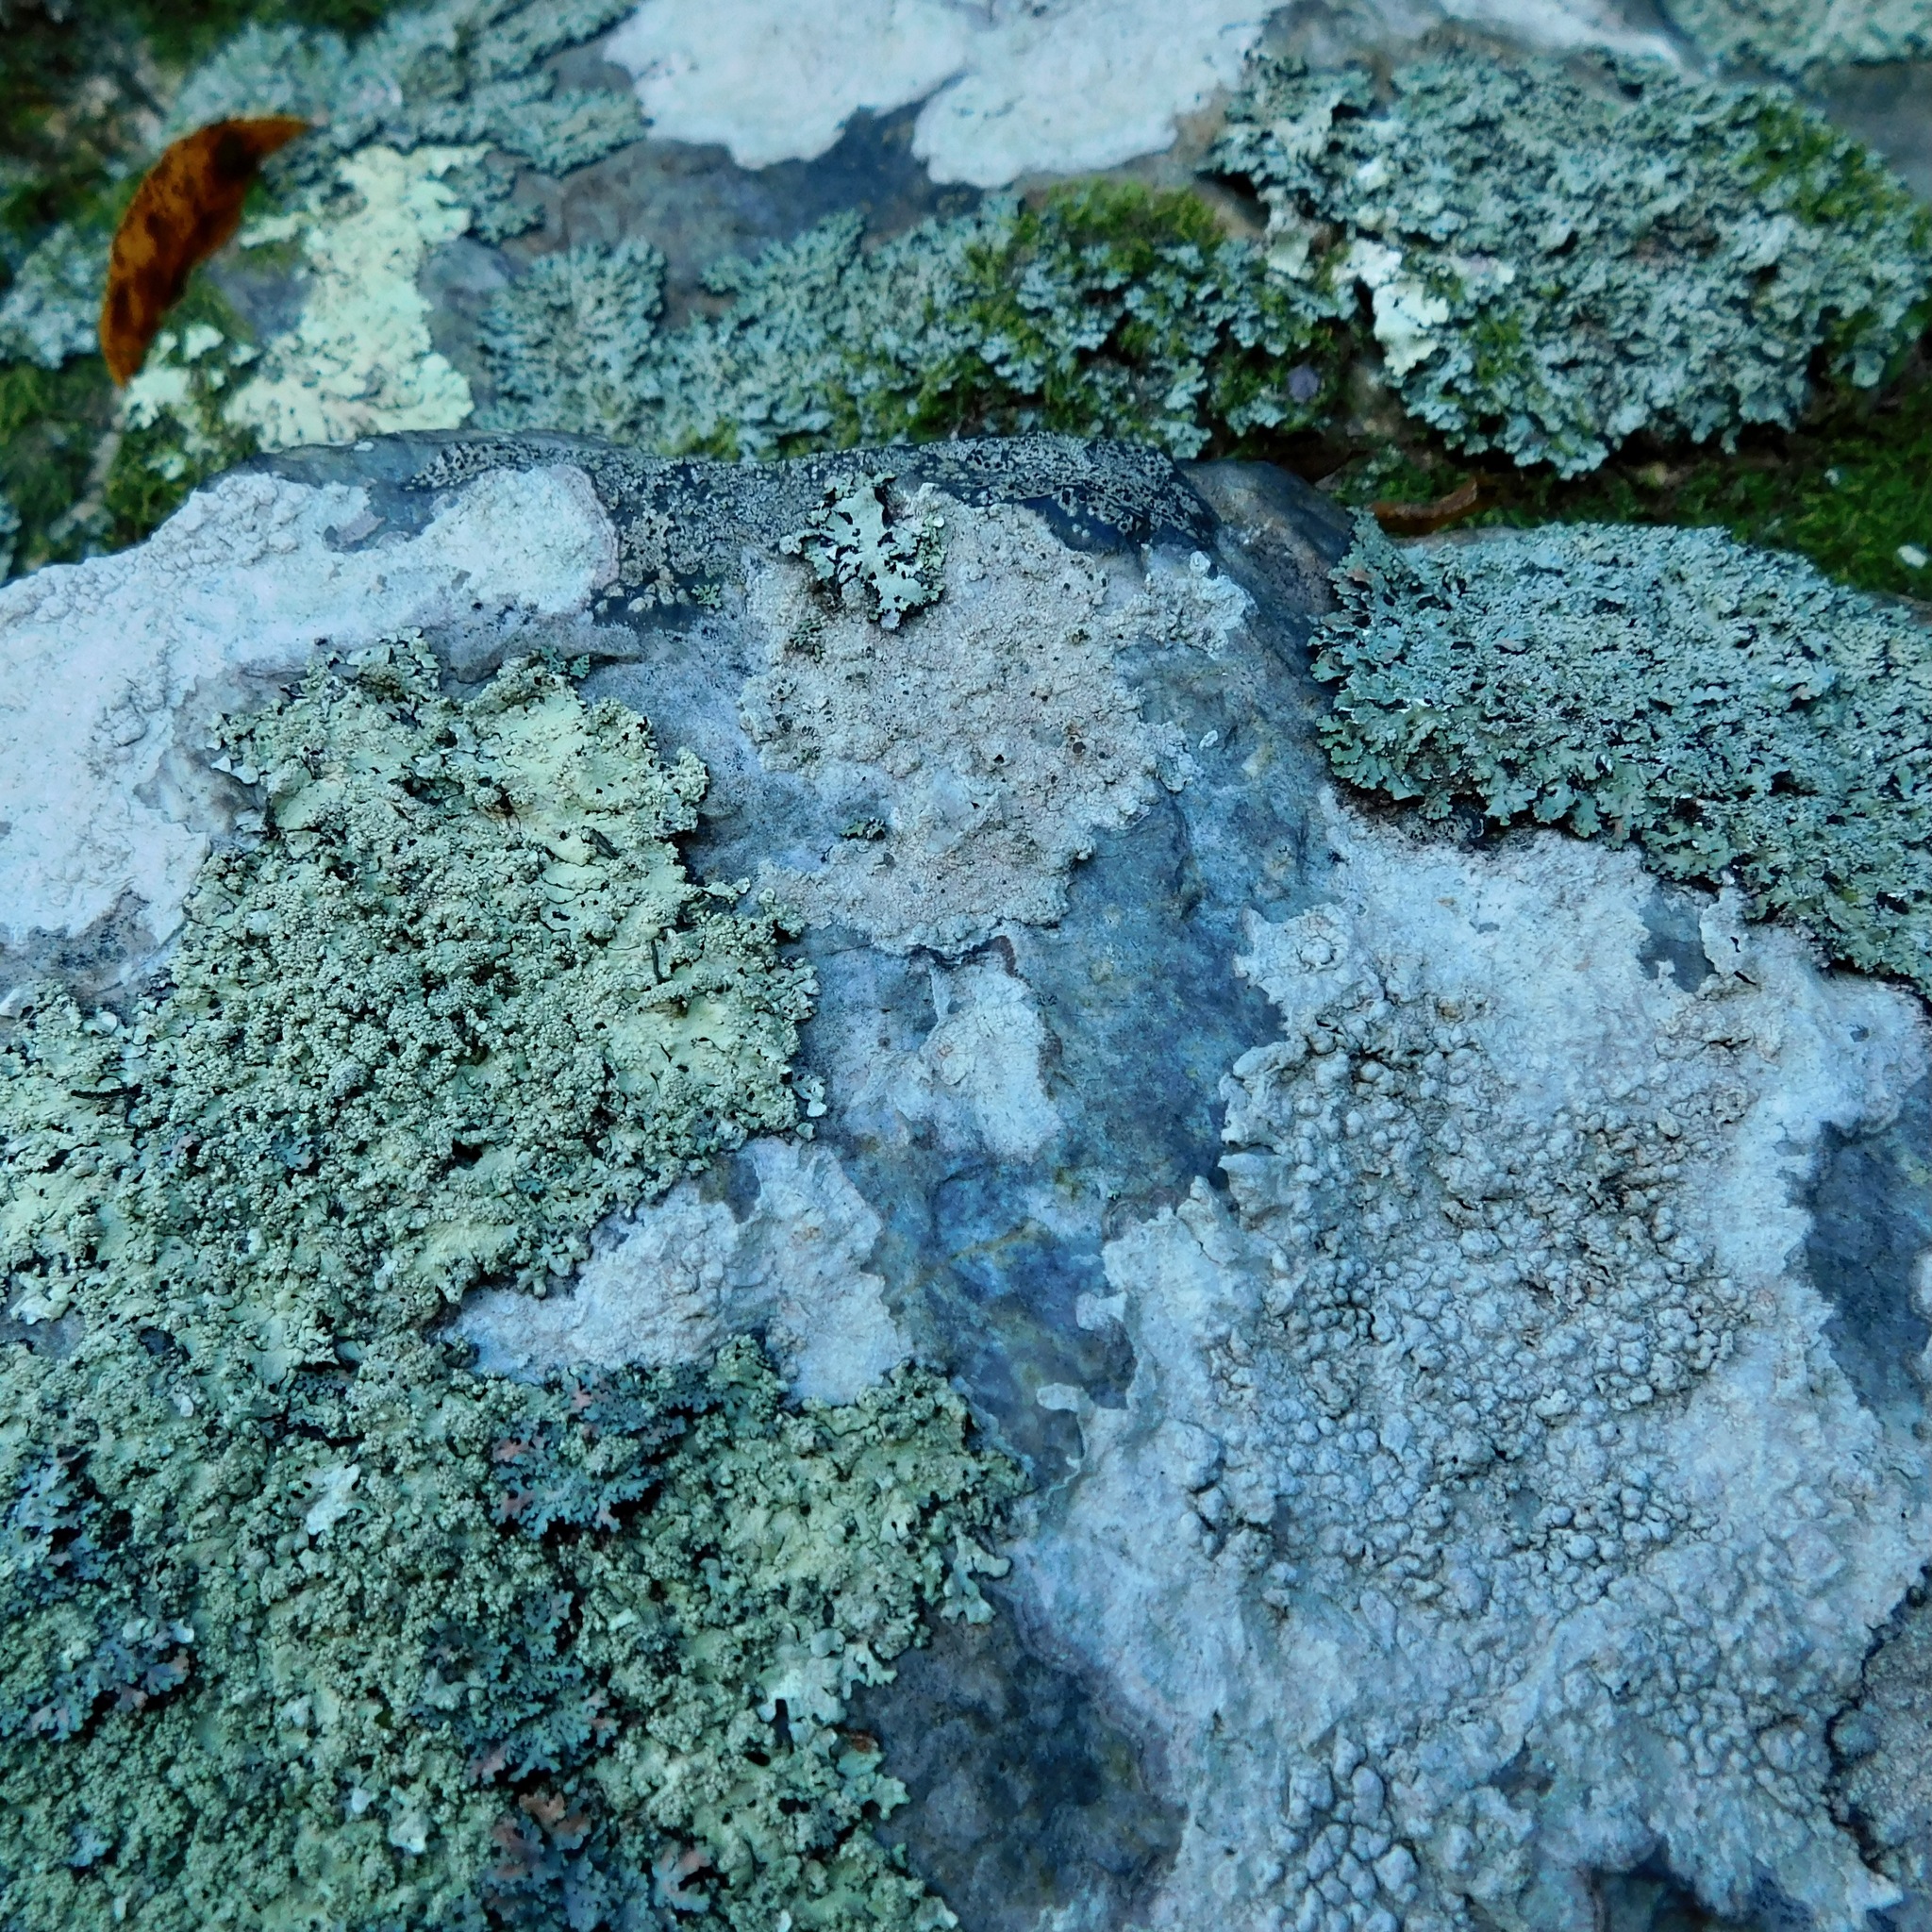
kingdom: Fungi
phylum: Ascomycota
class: Lecanoromycetes
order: Lecanorales
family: Lecanoraceae
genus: Lecanora
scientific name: Lecanora subimmergens
